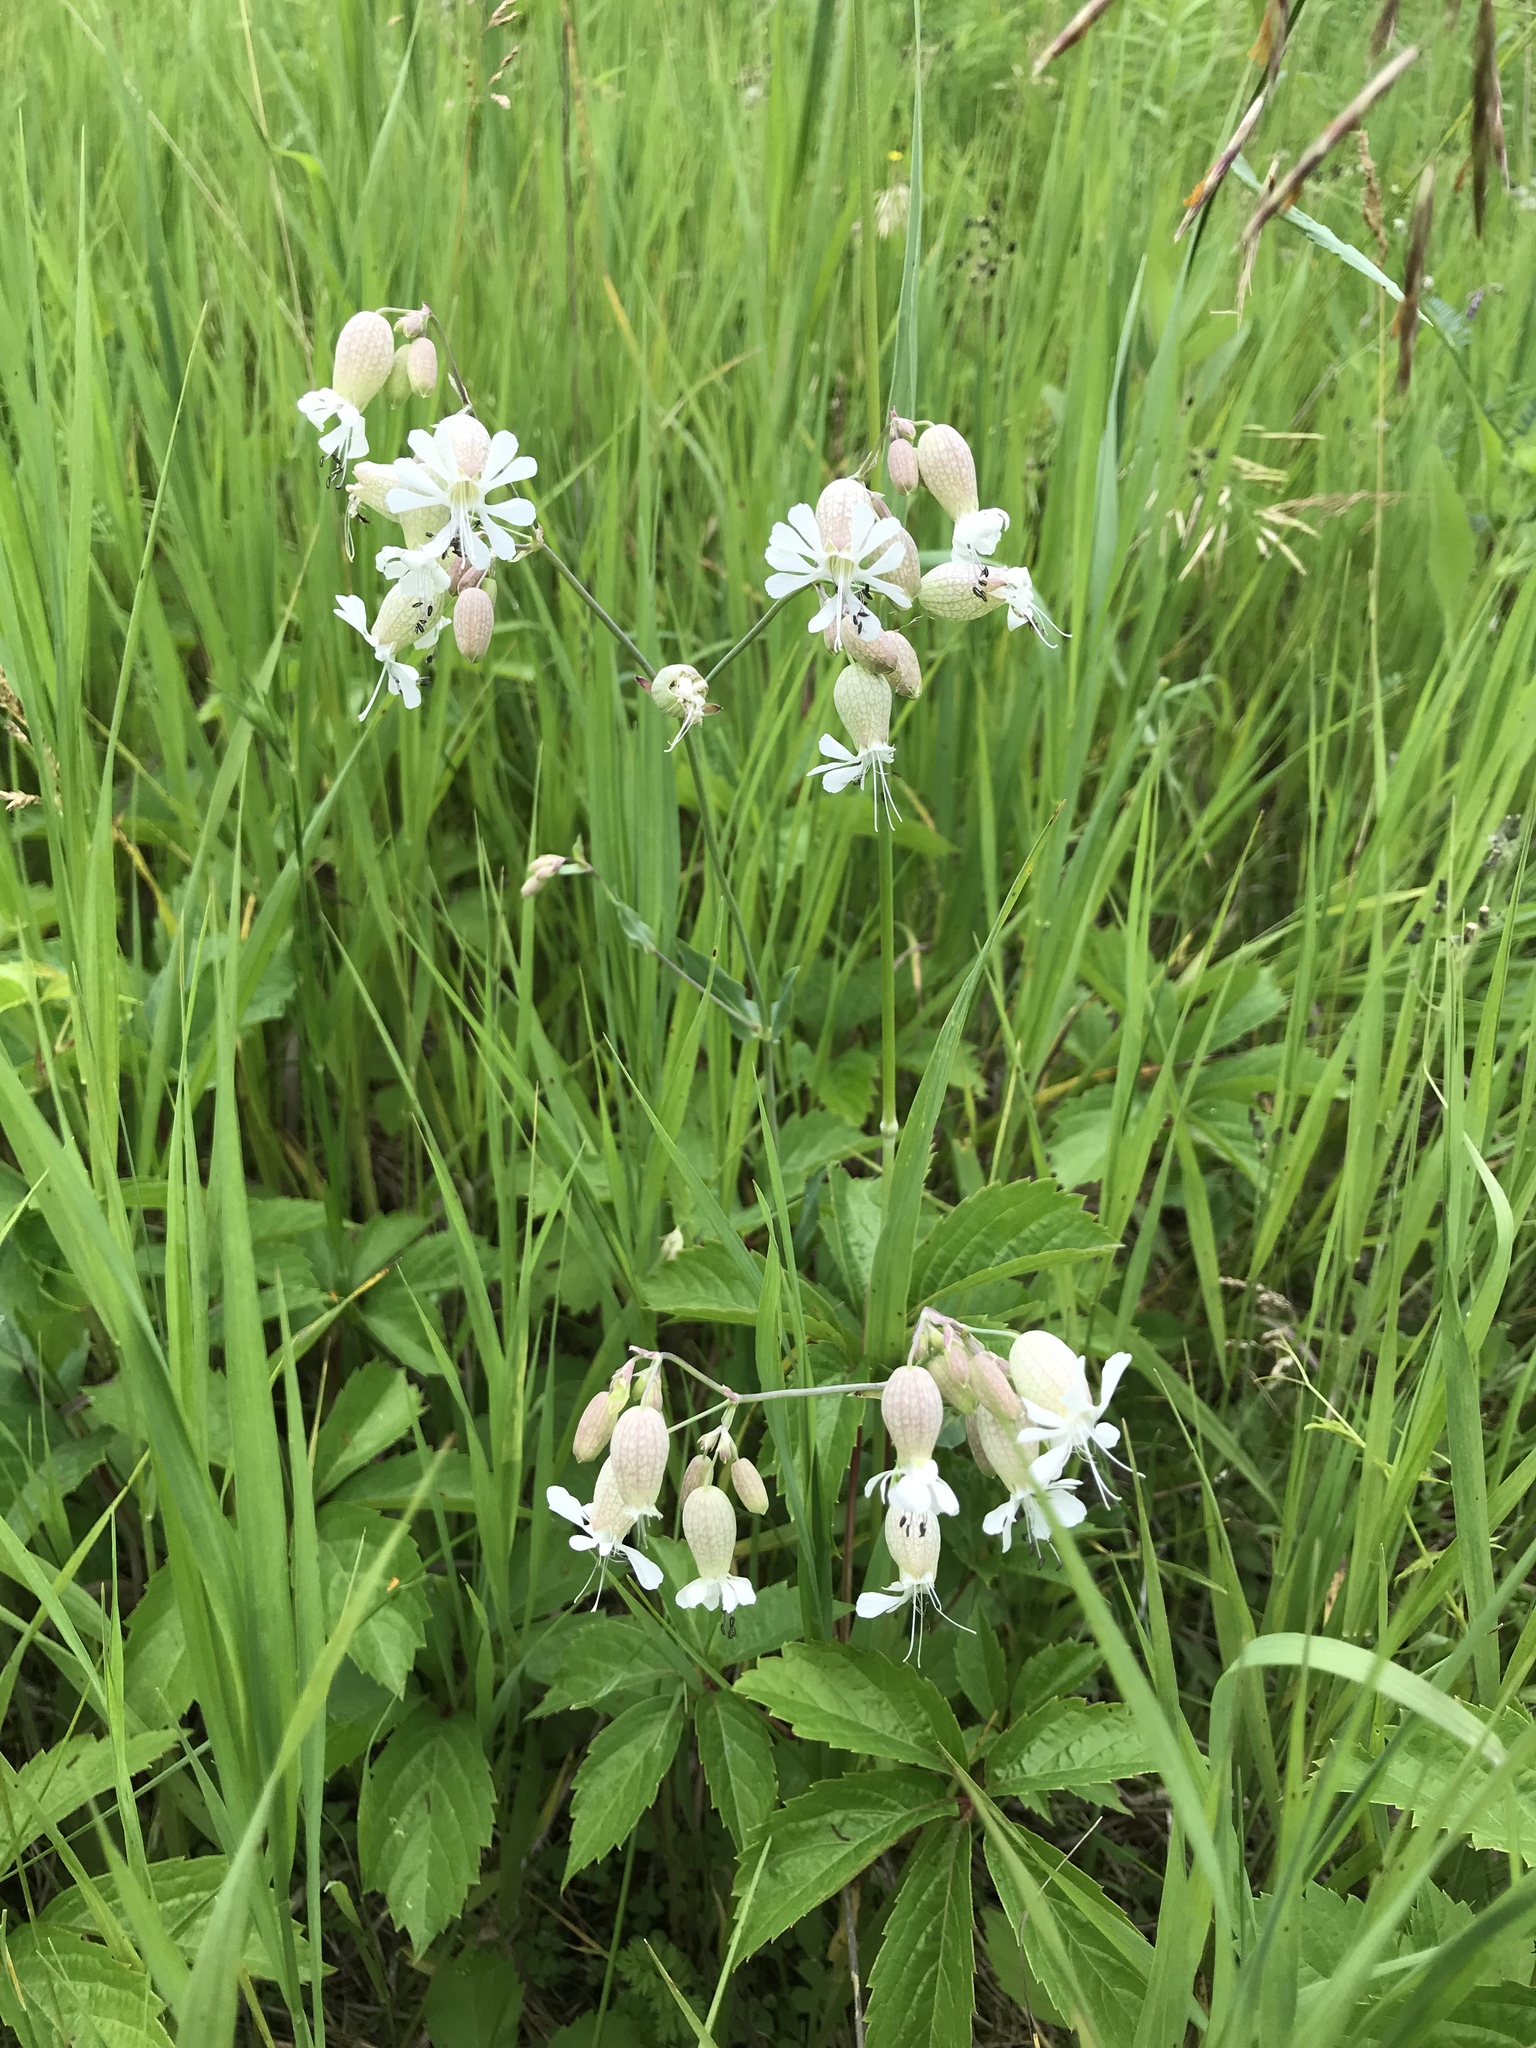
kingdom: Plantae
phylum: Tracheophyta
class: Magnoliopsida
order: Caryophyllales
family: Caryophyllaceae
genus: Silene
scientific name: Silene vulgaris
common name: Bladder campion
